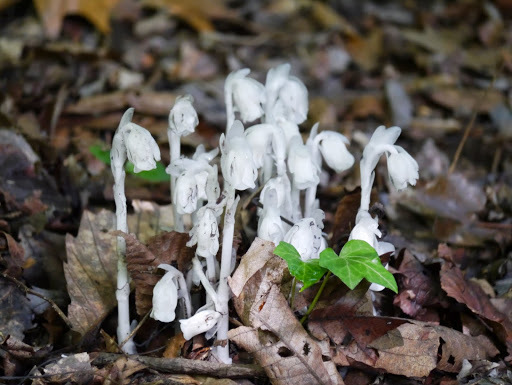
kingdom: Plantae
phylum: Tracheophyta
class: Magnoliopsida
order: Ericales
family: Ericaceae
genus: Monotropa
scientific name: Monotropa uniflora
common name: Convulsion root
